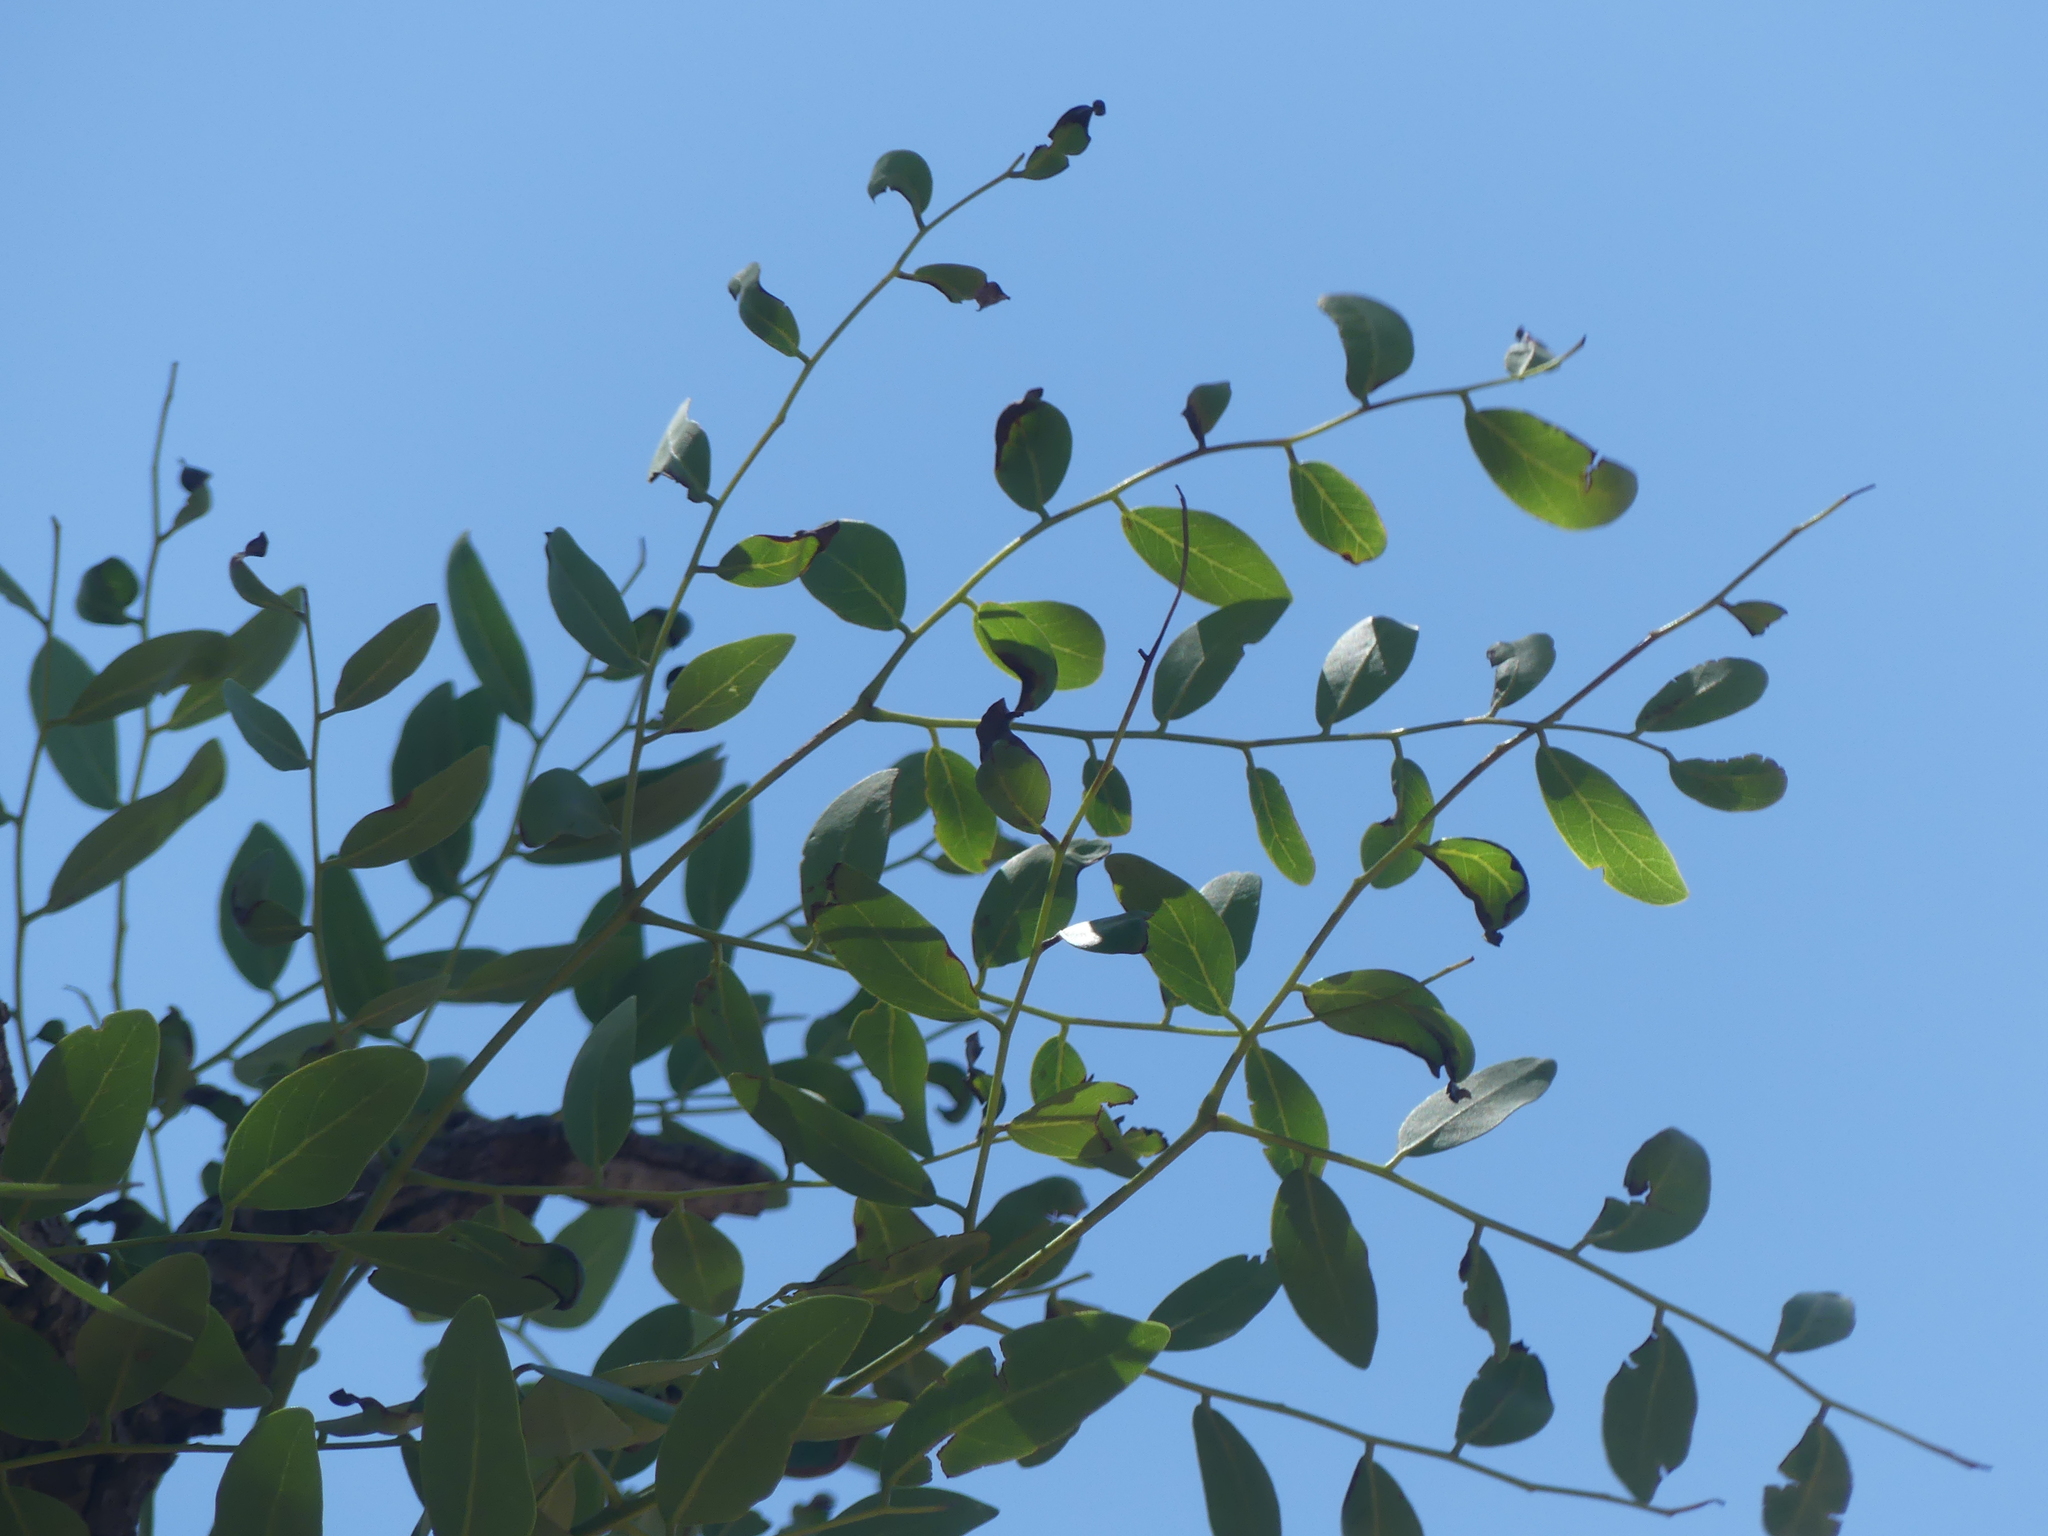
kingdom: Plantae
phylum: Tracheophyta
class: Magnoliopsida
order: Fabales
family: Fabaceae
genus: Burkea
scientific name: Burkea africana
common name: Mkalati tree
